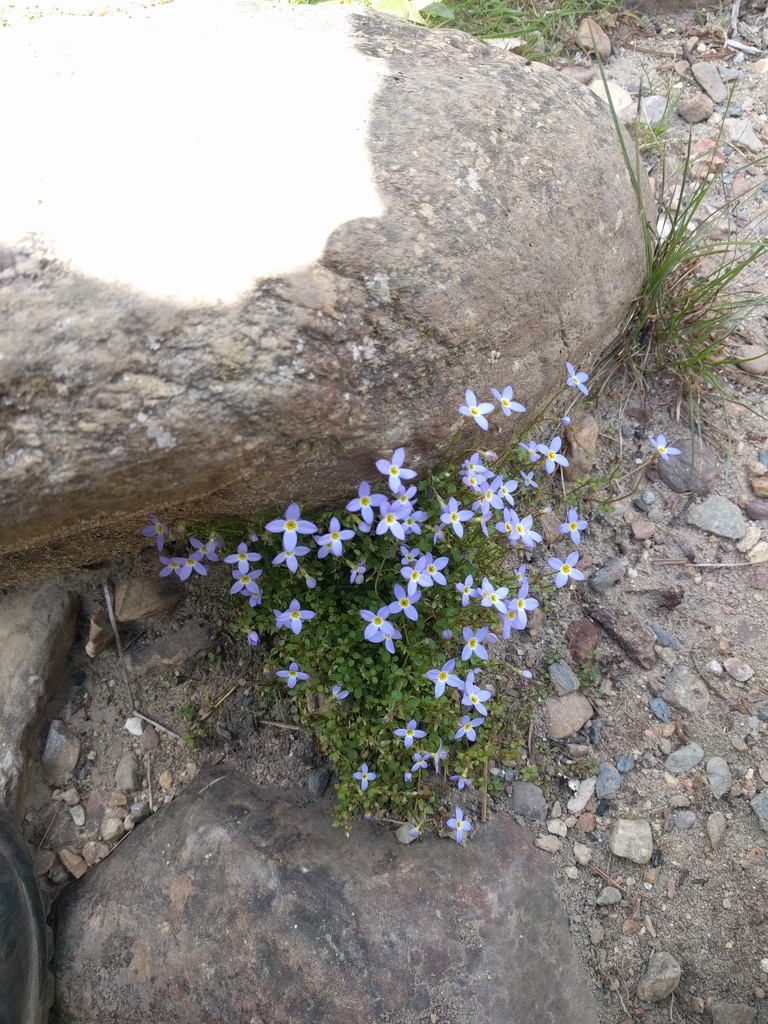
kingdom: Plantae
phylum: Tracheophyta
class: Magnoliopsida
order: Gentianales
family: Rubiaceae
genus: Houstonia
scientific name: Houstonia serpyllifolia
